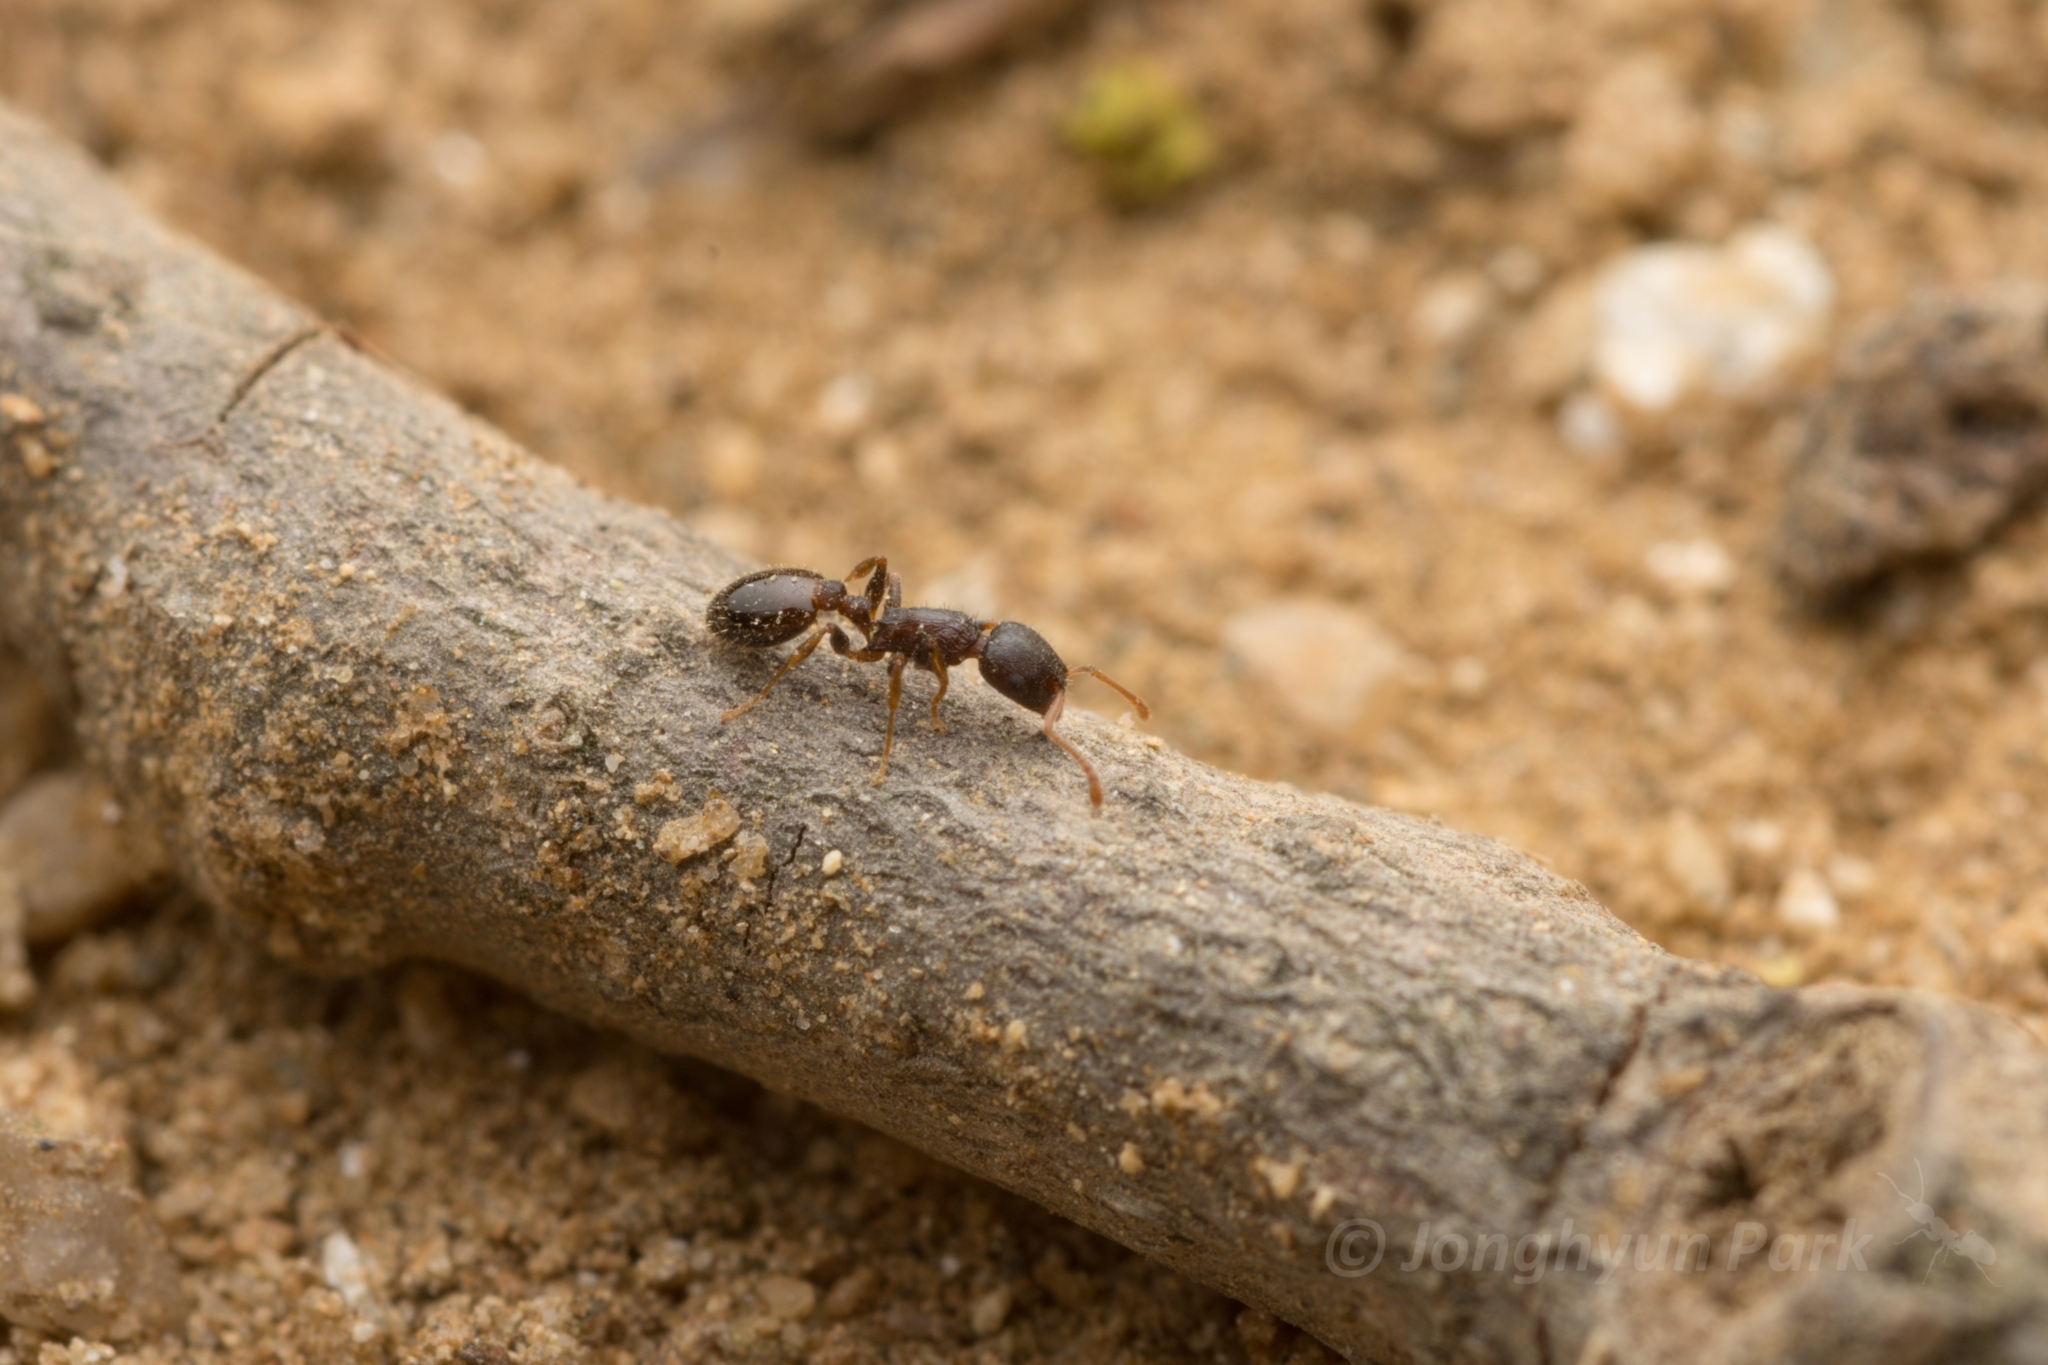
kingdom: Animalia
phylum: Arthropoda
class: Insecta
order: Hymenoptera
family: Formicidae
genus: Temnothorax
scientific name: Temnothorax
